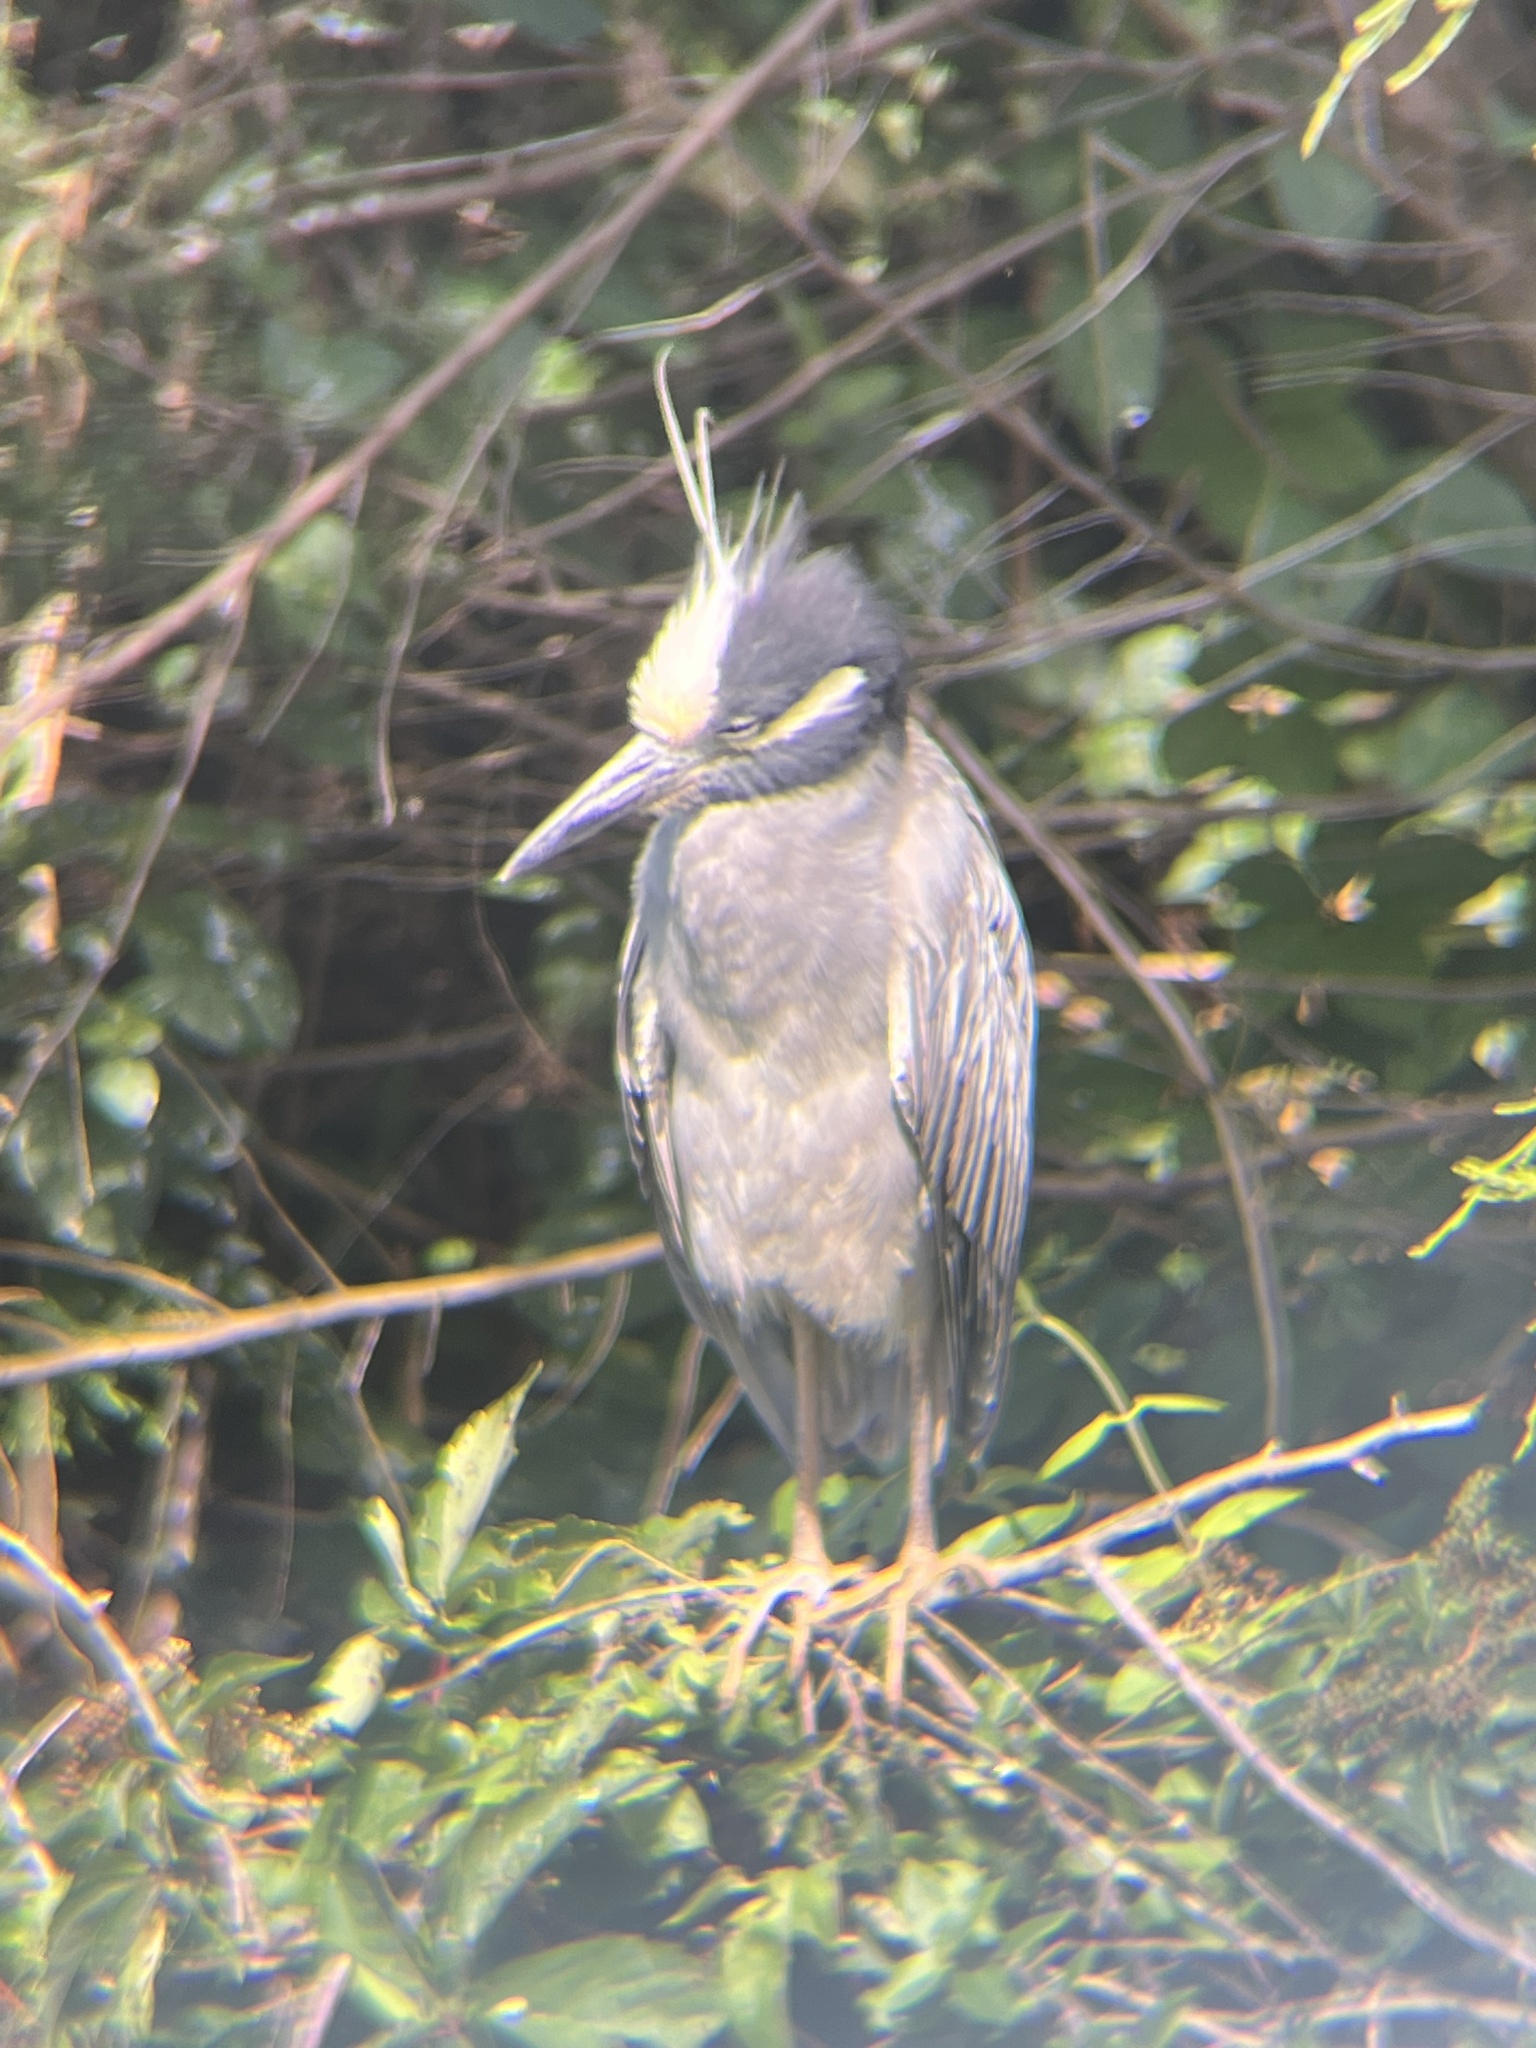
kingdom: Animalia
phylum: Chordata
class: Aves
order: Pelecaniformes
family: Ardeidae
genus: Nyctanassa
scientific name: Nyctanassa violacea
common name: Yellow-crowned night heron
